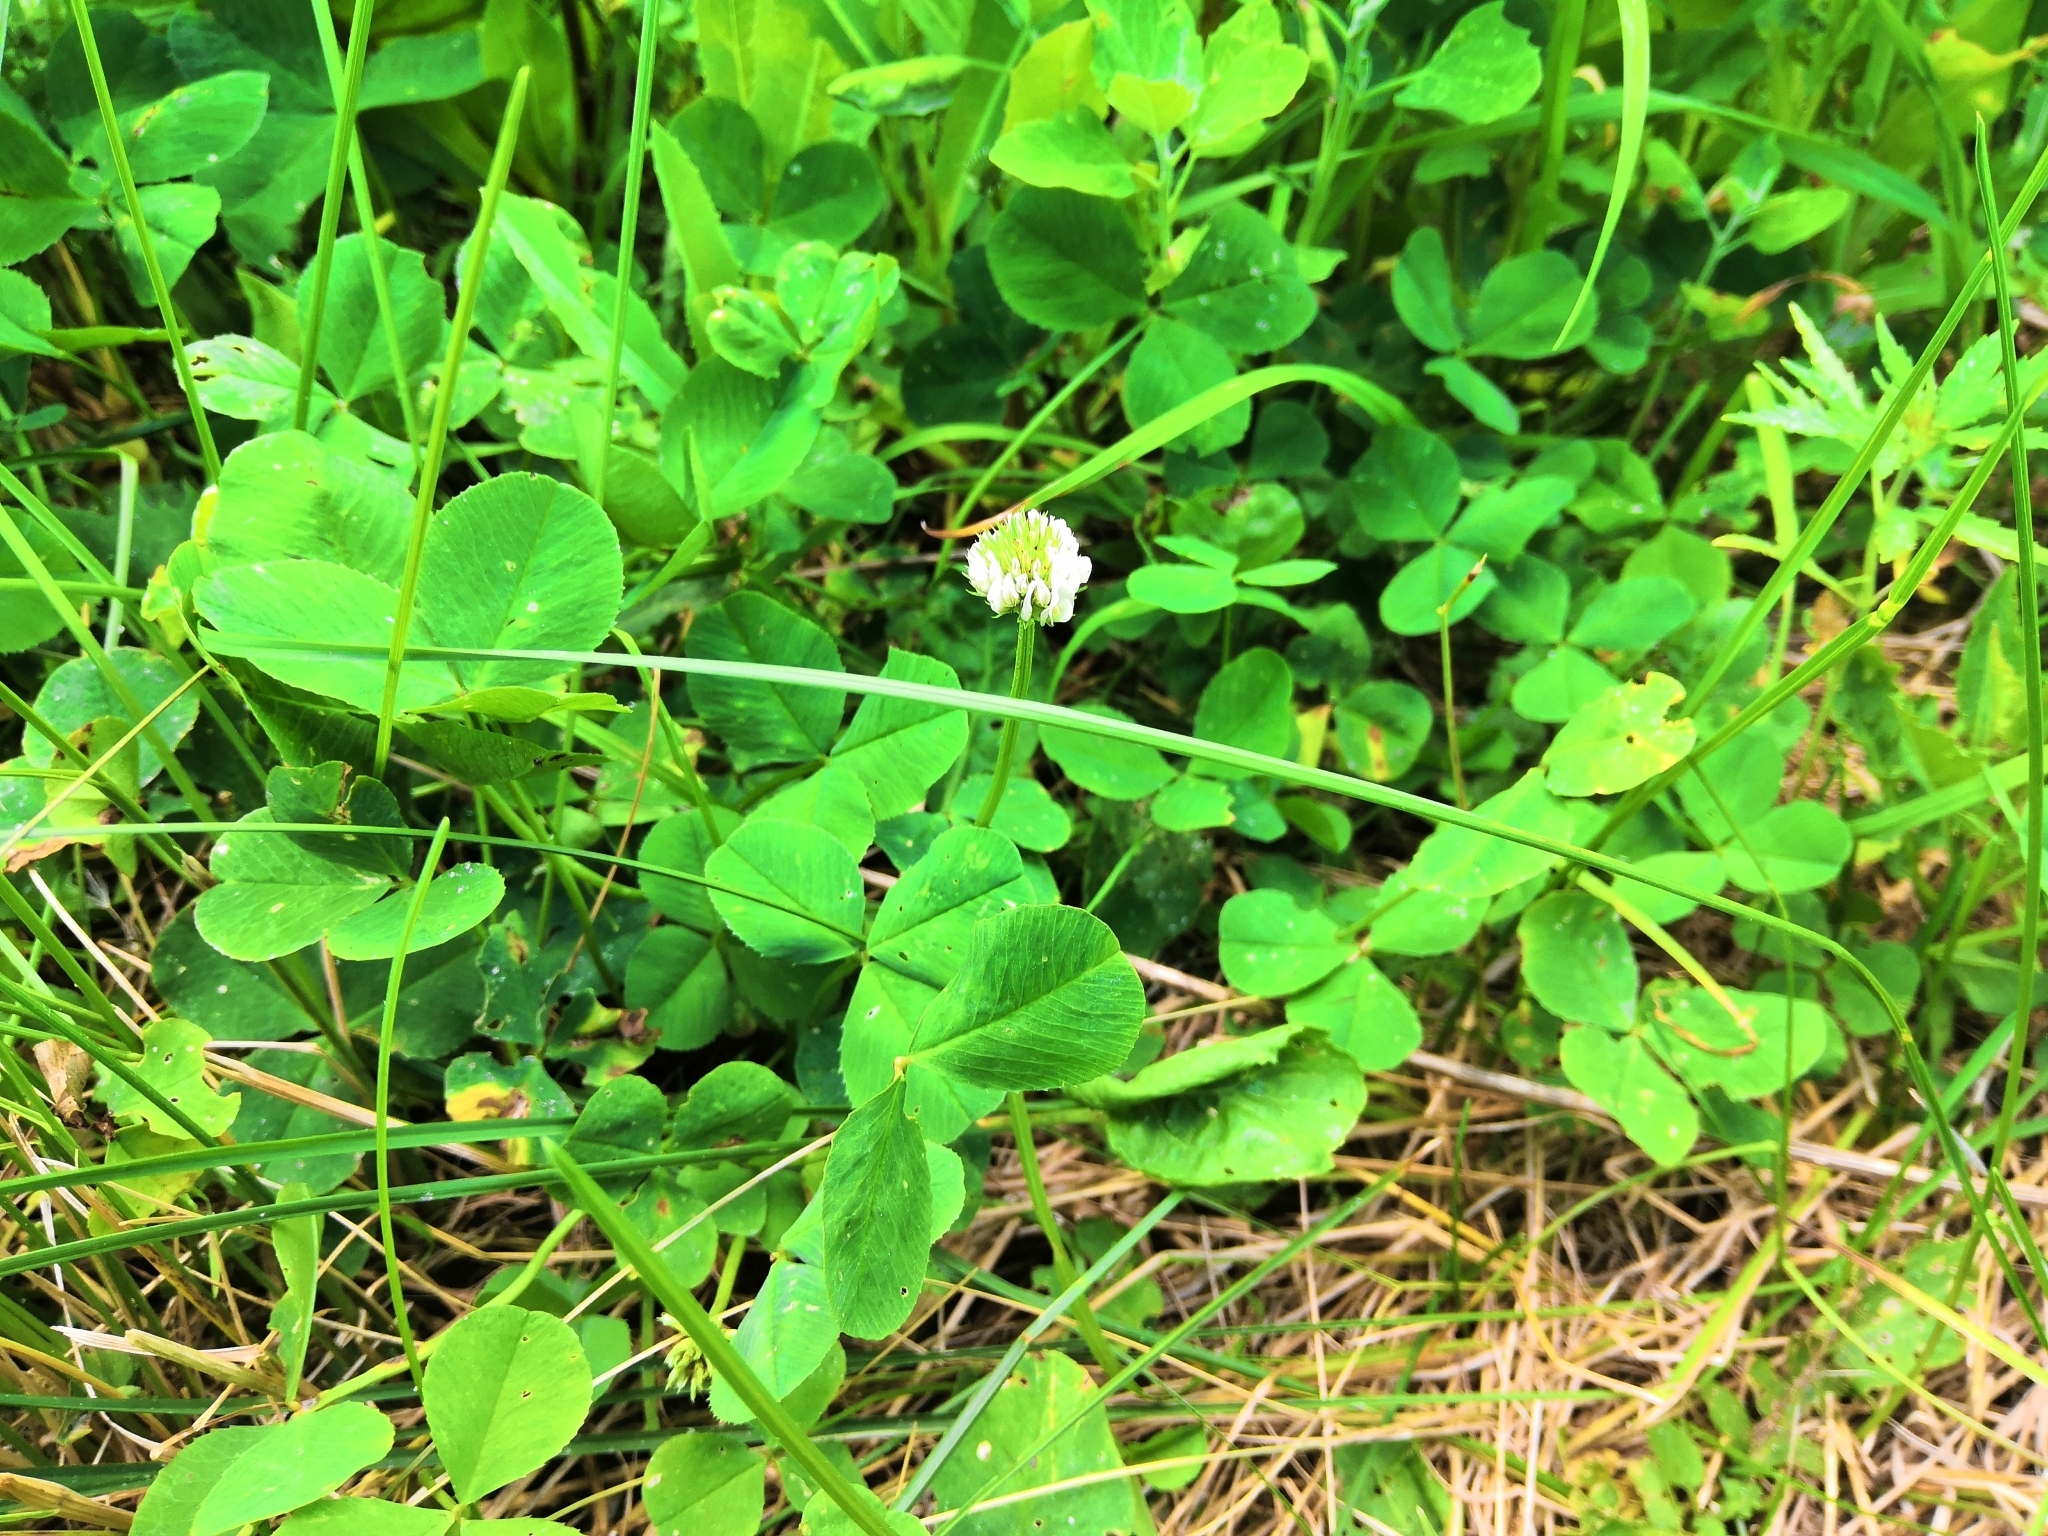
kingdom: Plantae
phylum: Tracheophyta
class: Magnoliopsida
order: Fabales
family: Fabaceae
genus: Trifolium
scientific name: Trifolium repens
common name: White clover
